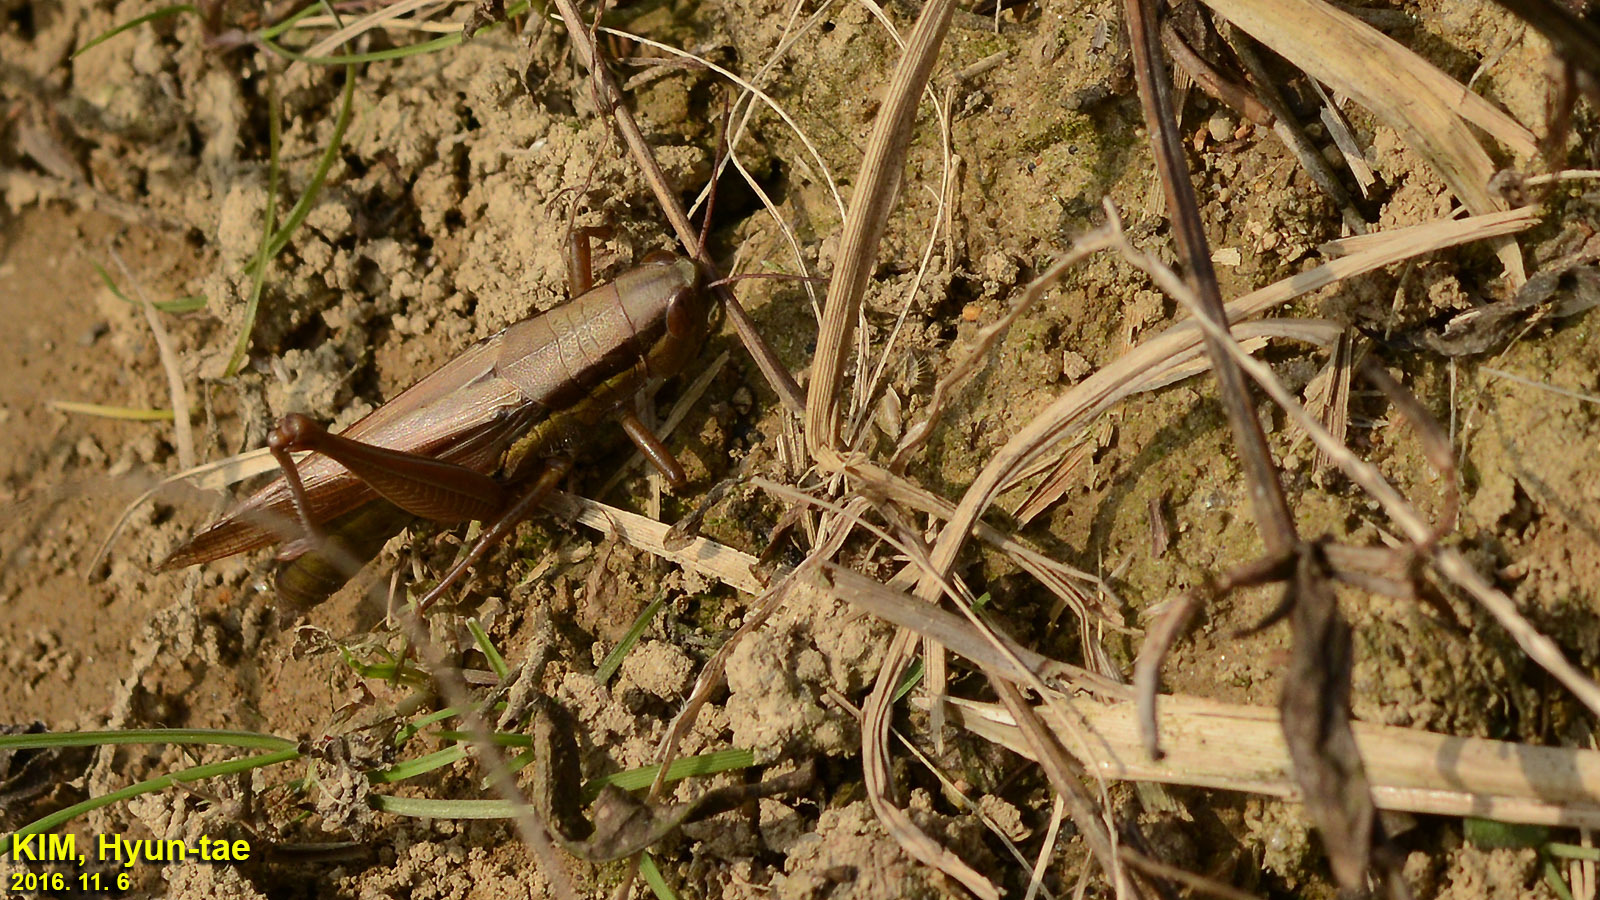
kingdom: Animalia
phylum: Arthropoda
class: Insecta
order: Orthoptera
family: Acrididae
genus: Oxya
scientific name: Oxya chinensis
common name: Small rice grasshopper
